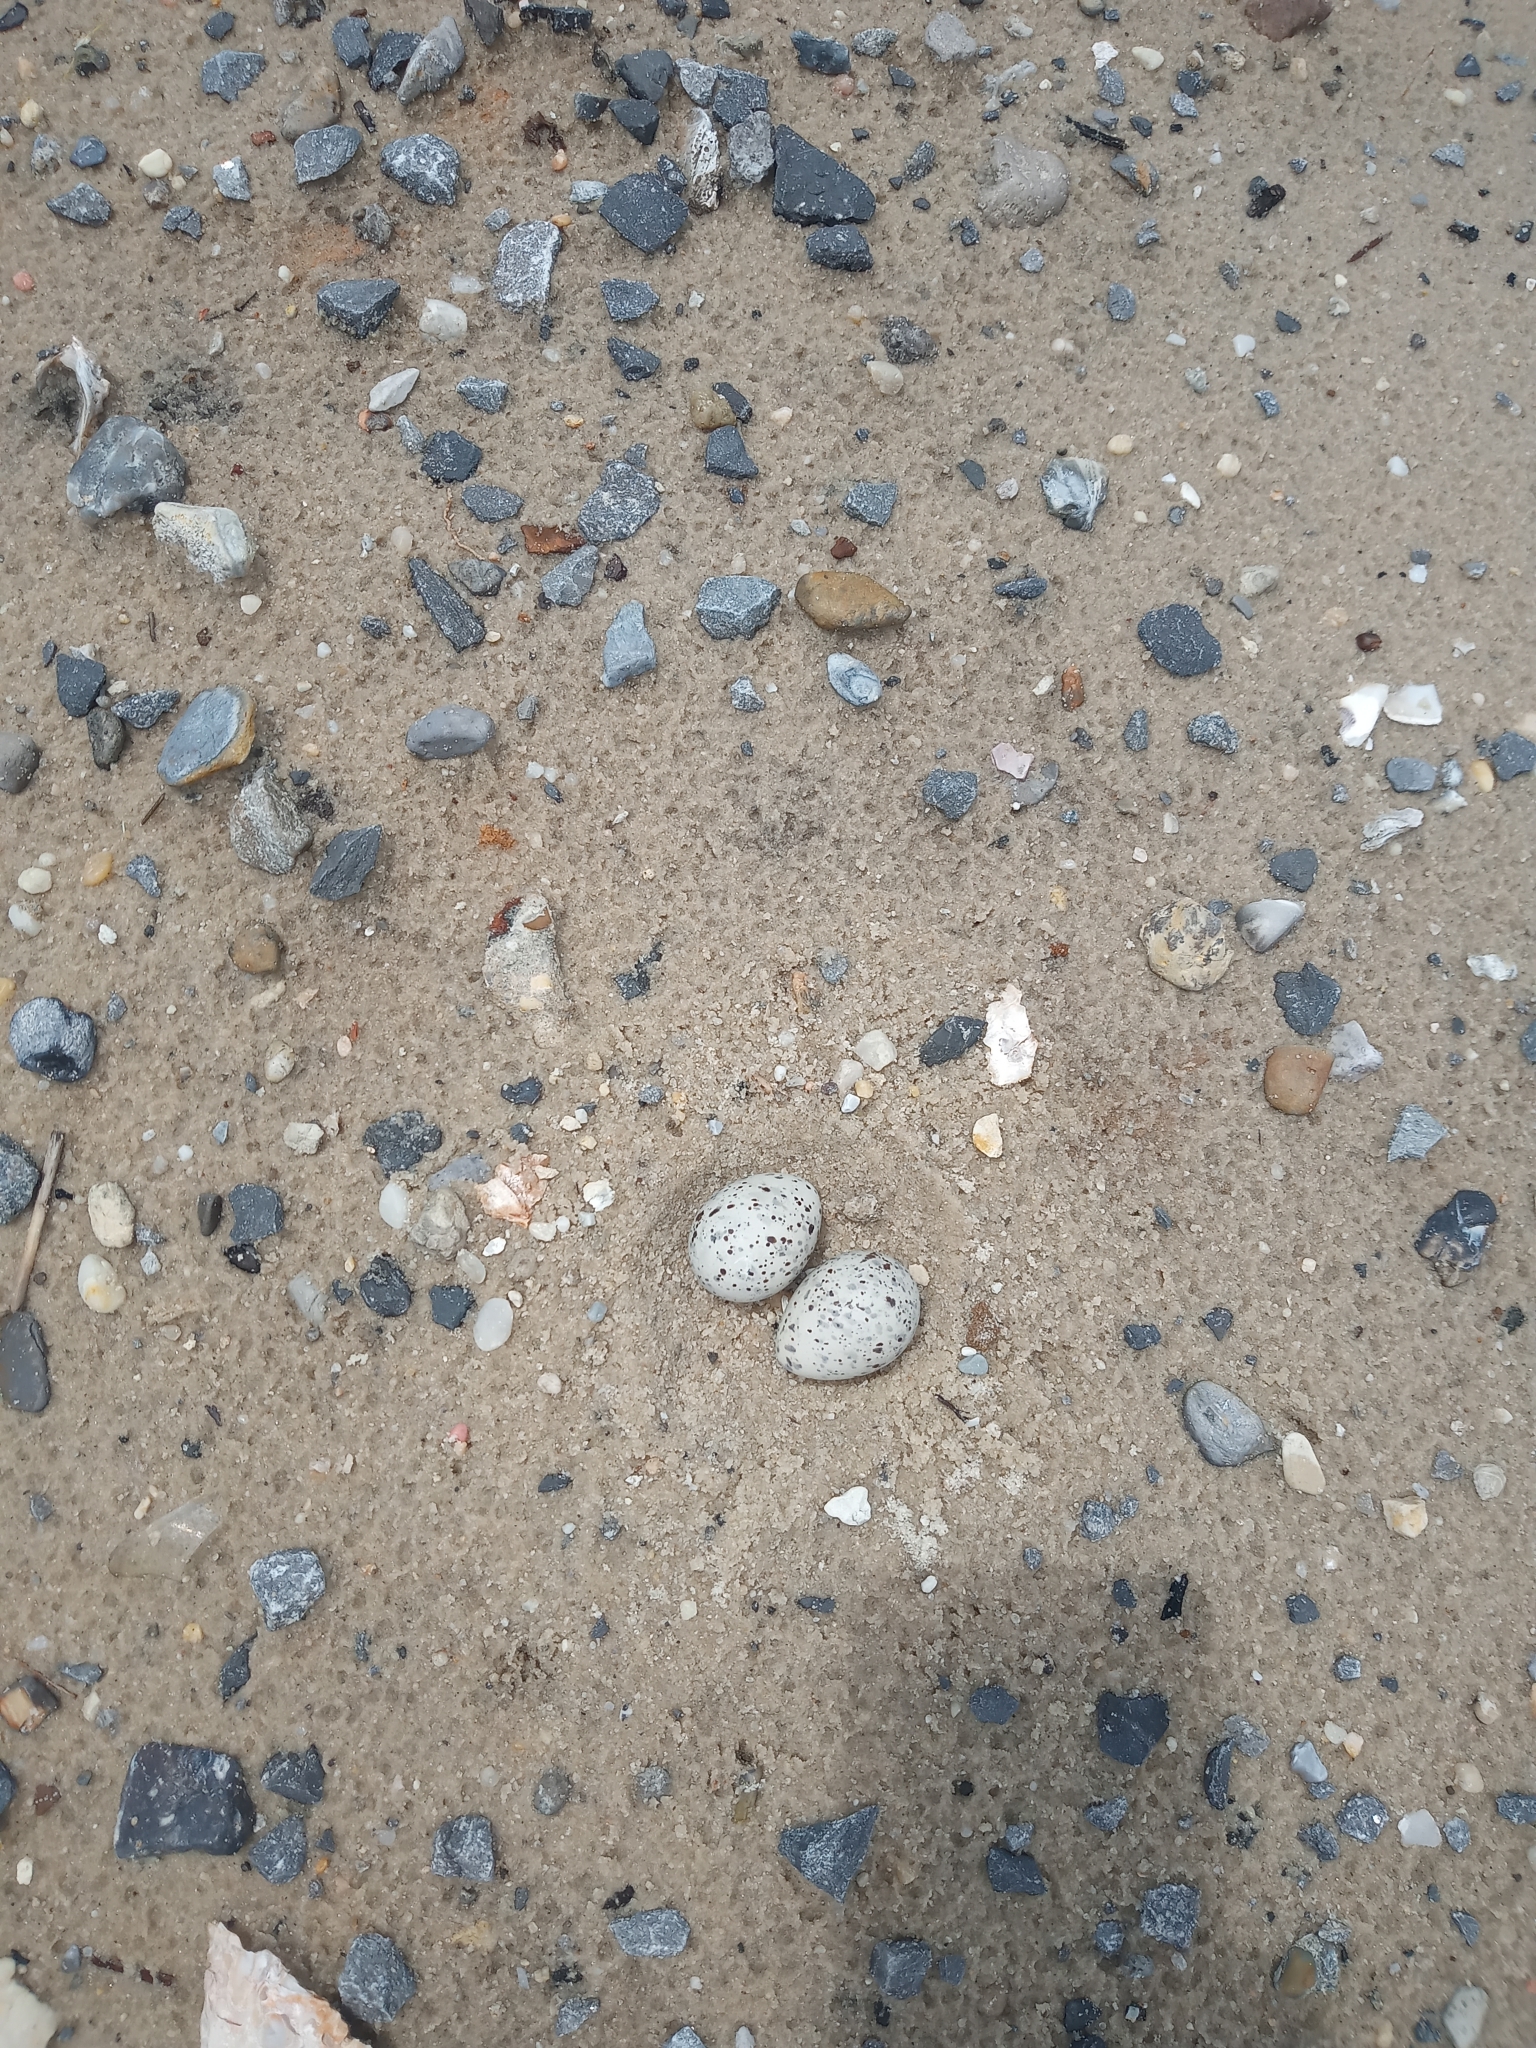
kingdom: Animalia
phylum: Chordata
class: Aves
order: Charadriiformes
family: Laridae
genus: Sternula
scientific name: Sternula antillarum
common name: Least tern
